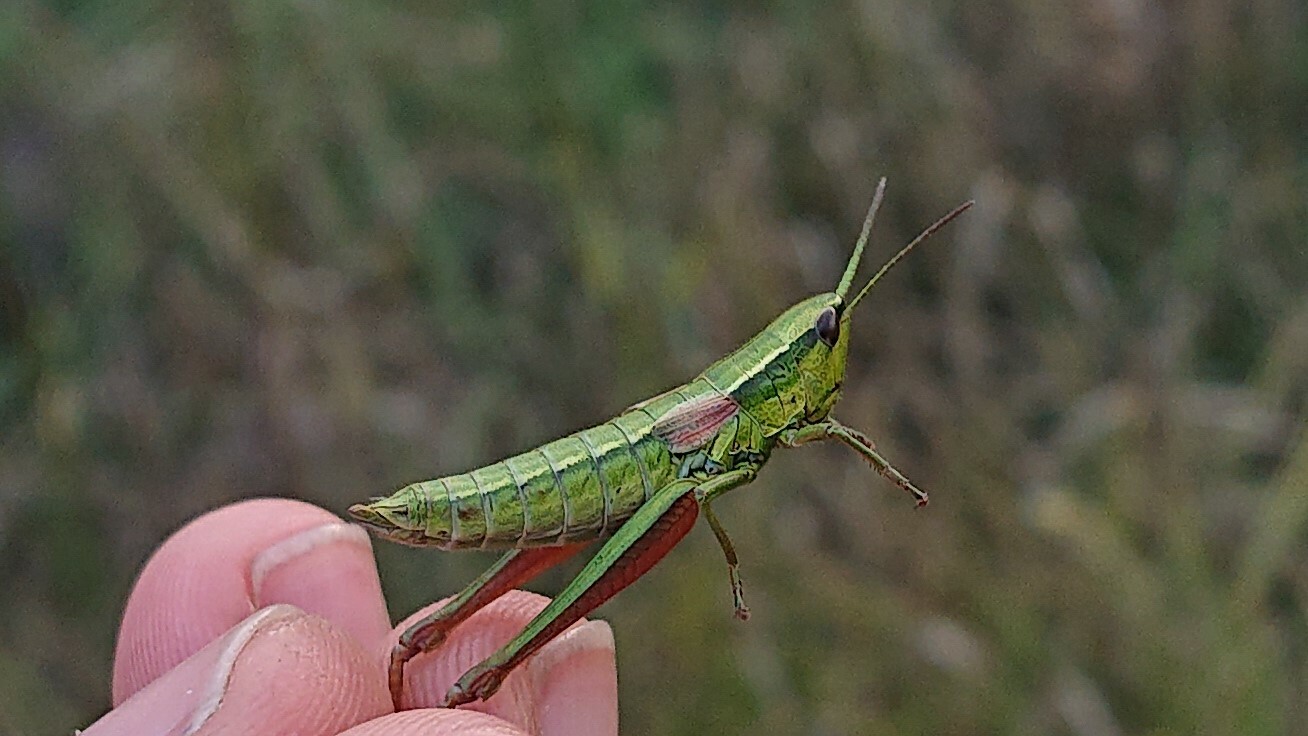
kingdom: Animalia
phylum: Arthropoda
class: Insecta
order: Orthoptera
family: Acrididae
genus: Euthystira
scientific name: Euthystira brachyptera
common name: Small gold grasshopper
